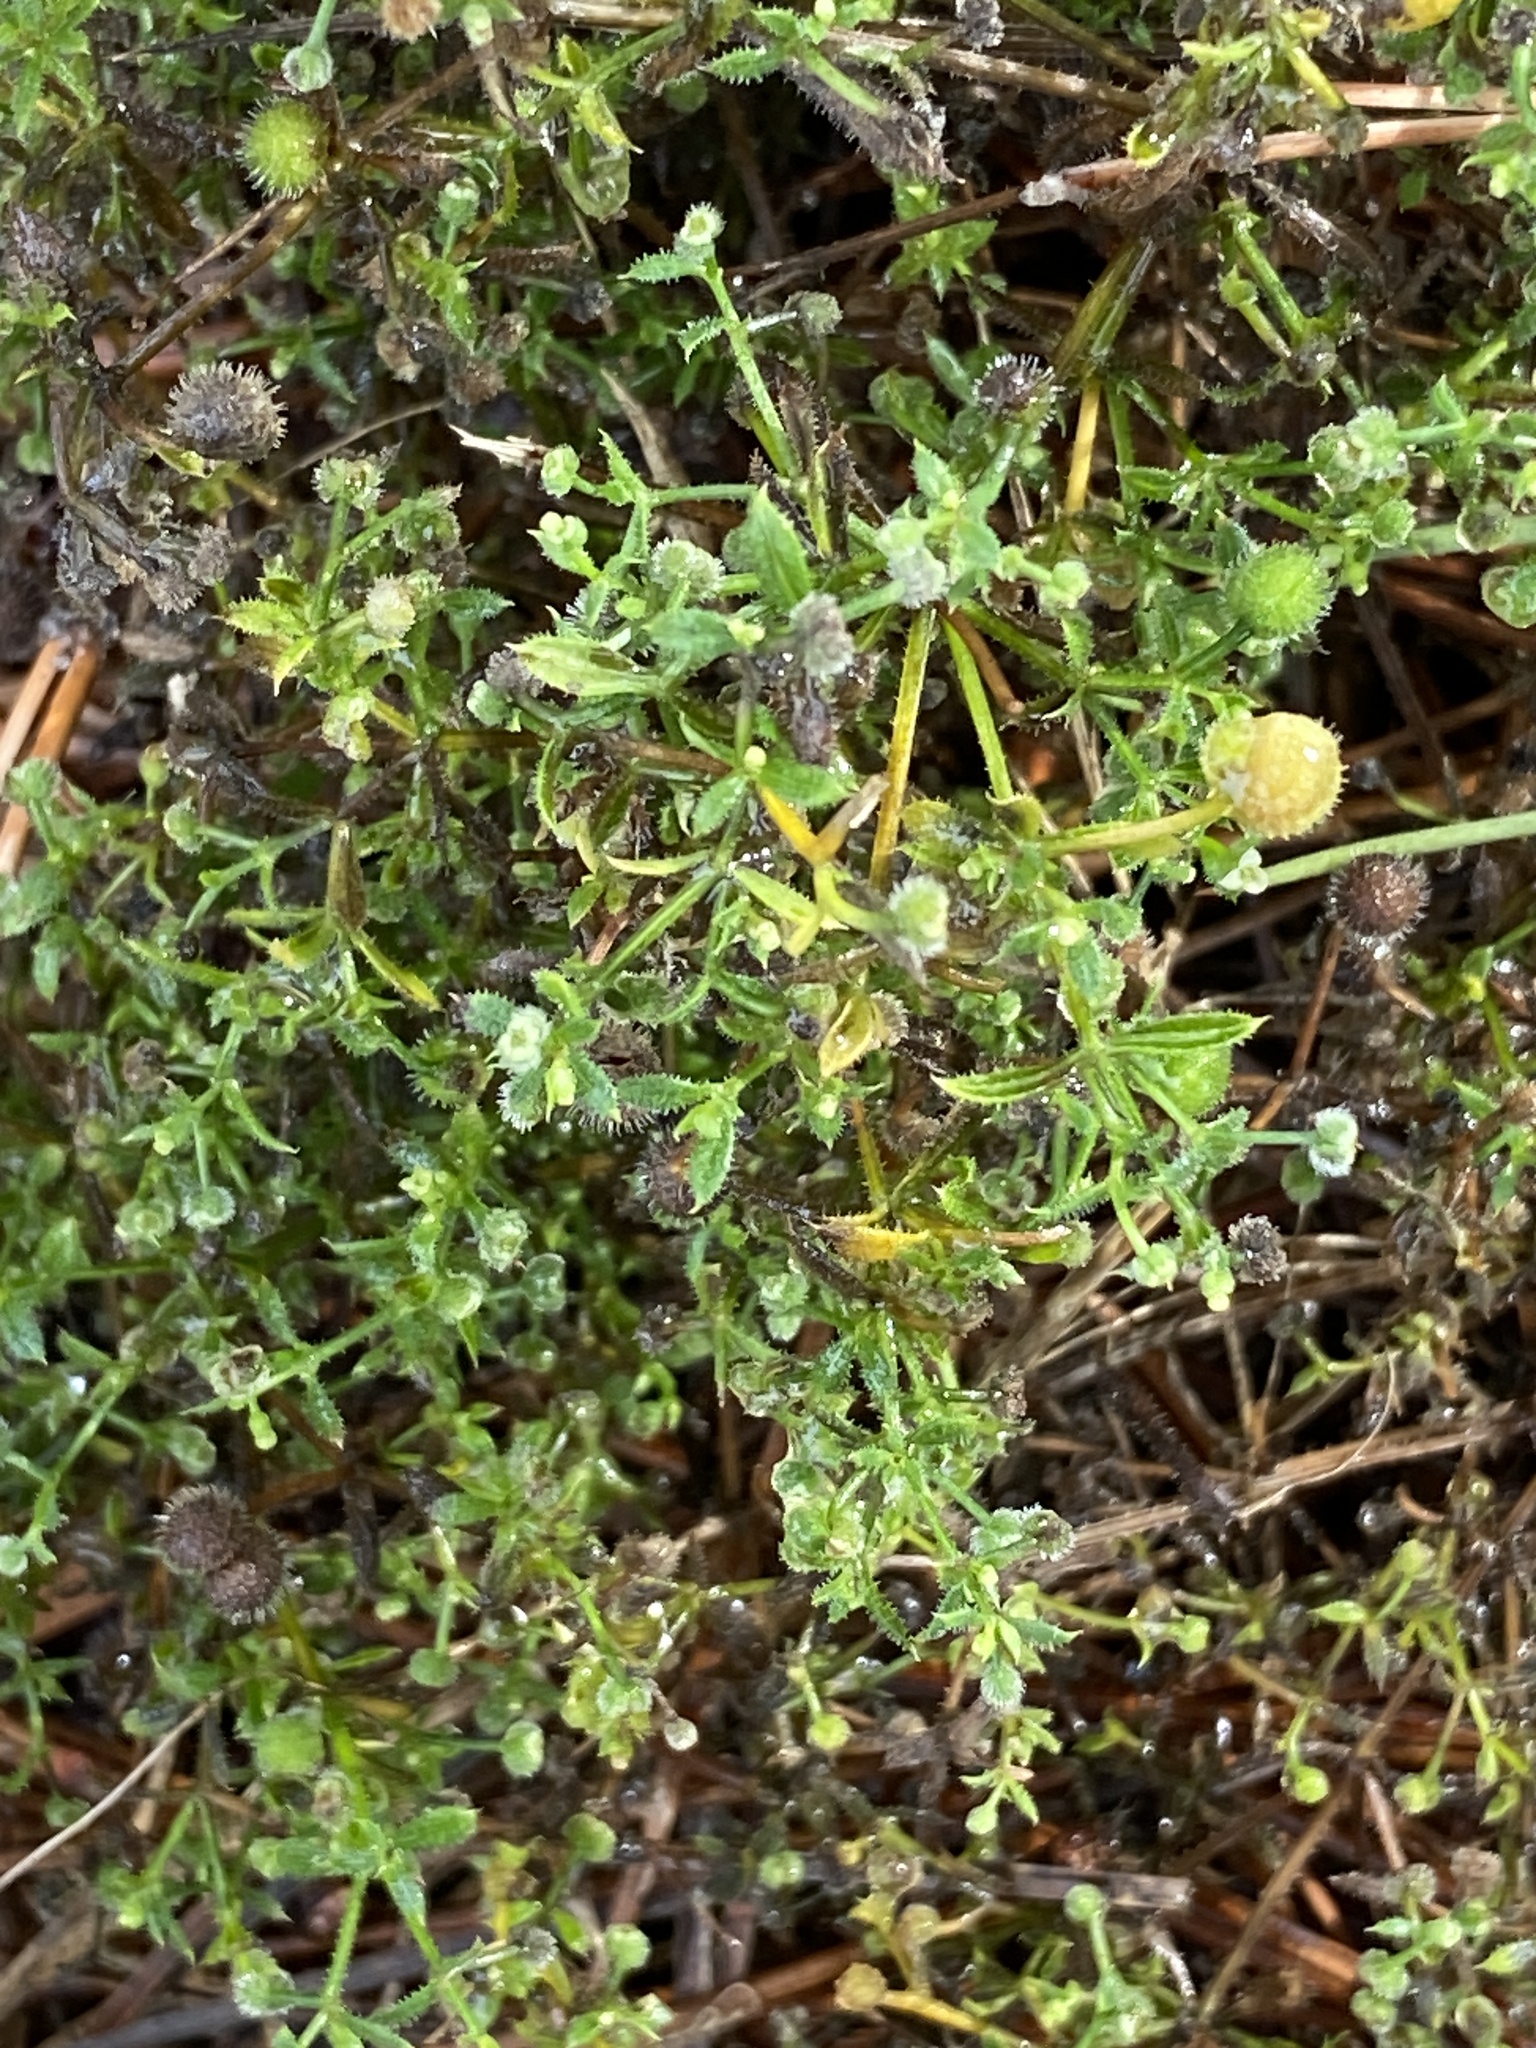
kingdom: Plantae
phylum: Tracheophyta
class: Magnoliopsida
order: Gentianales
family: Rubiaceae
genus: Galium
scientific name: Galium aparine
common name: Cleavers
